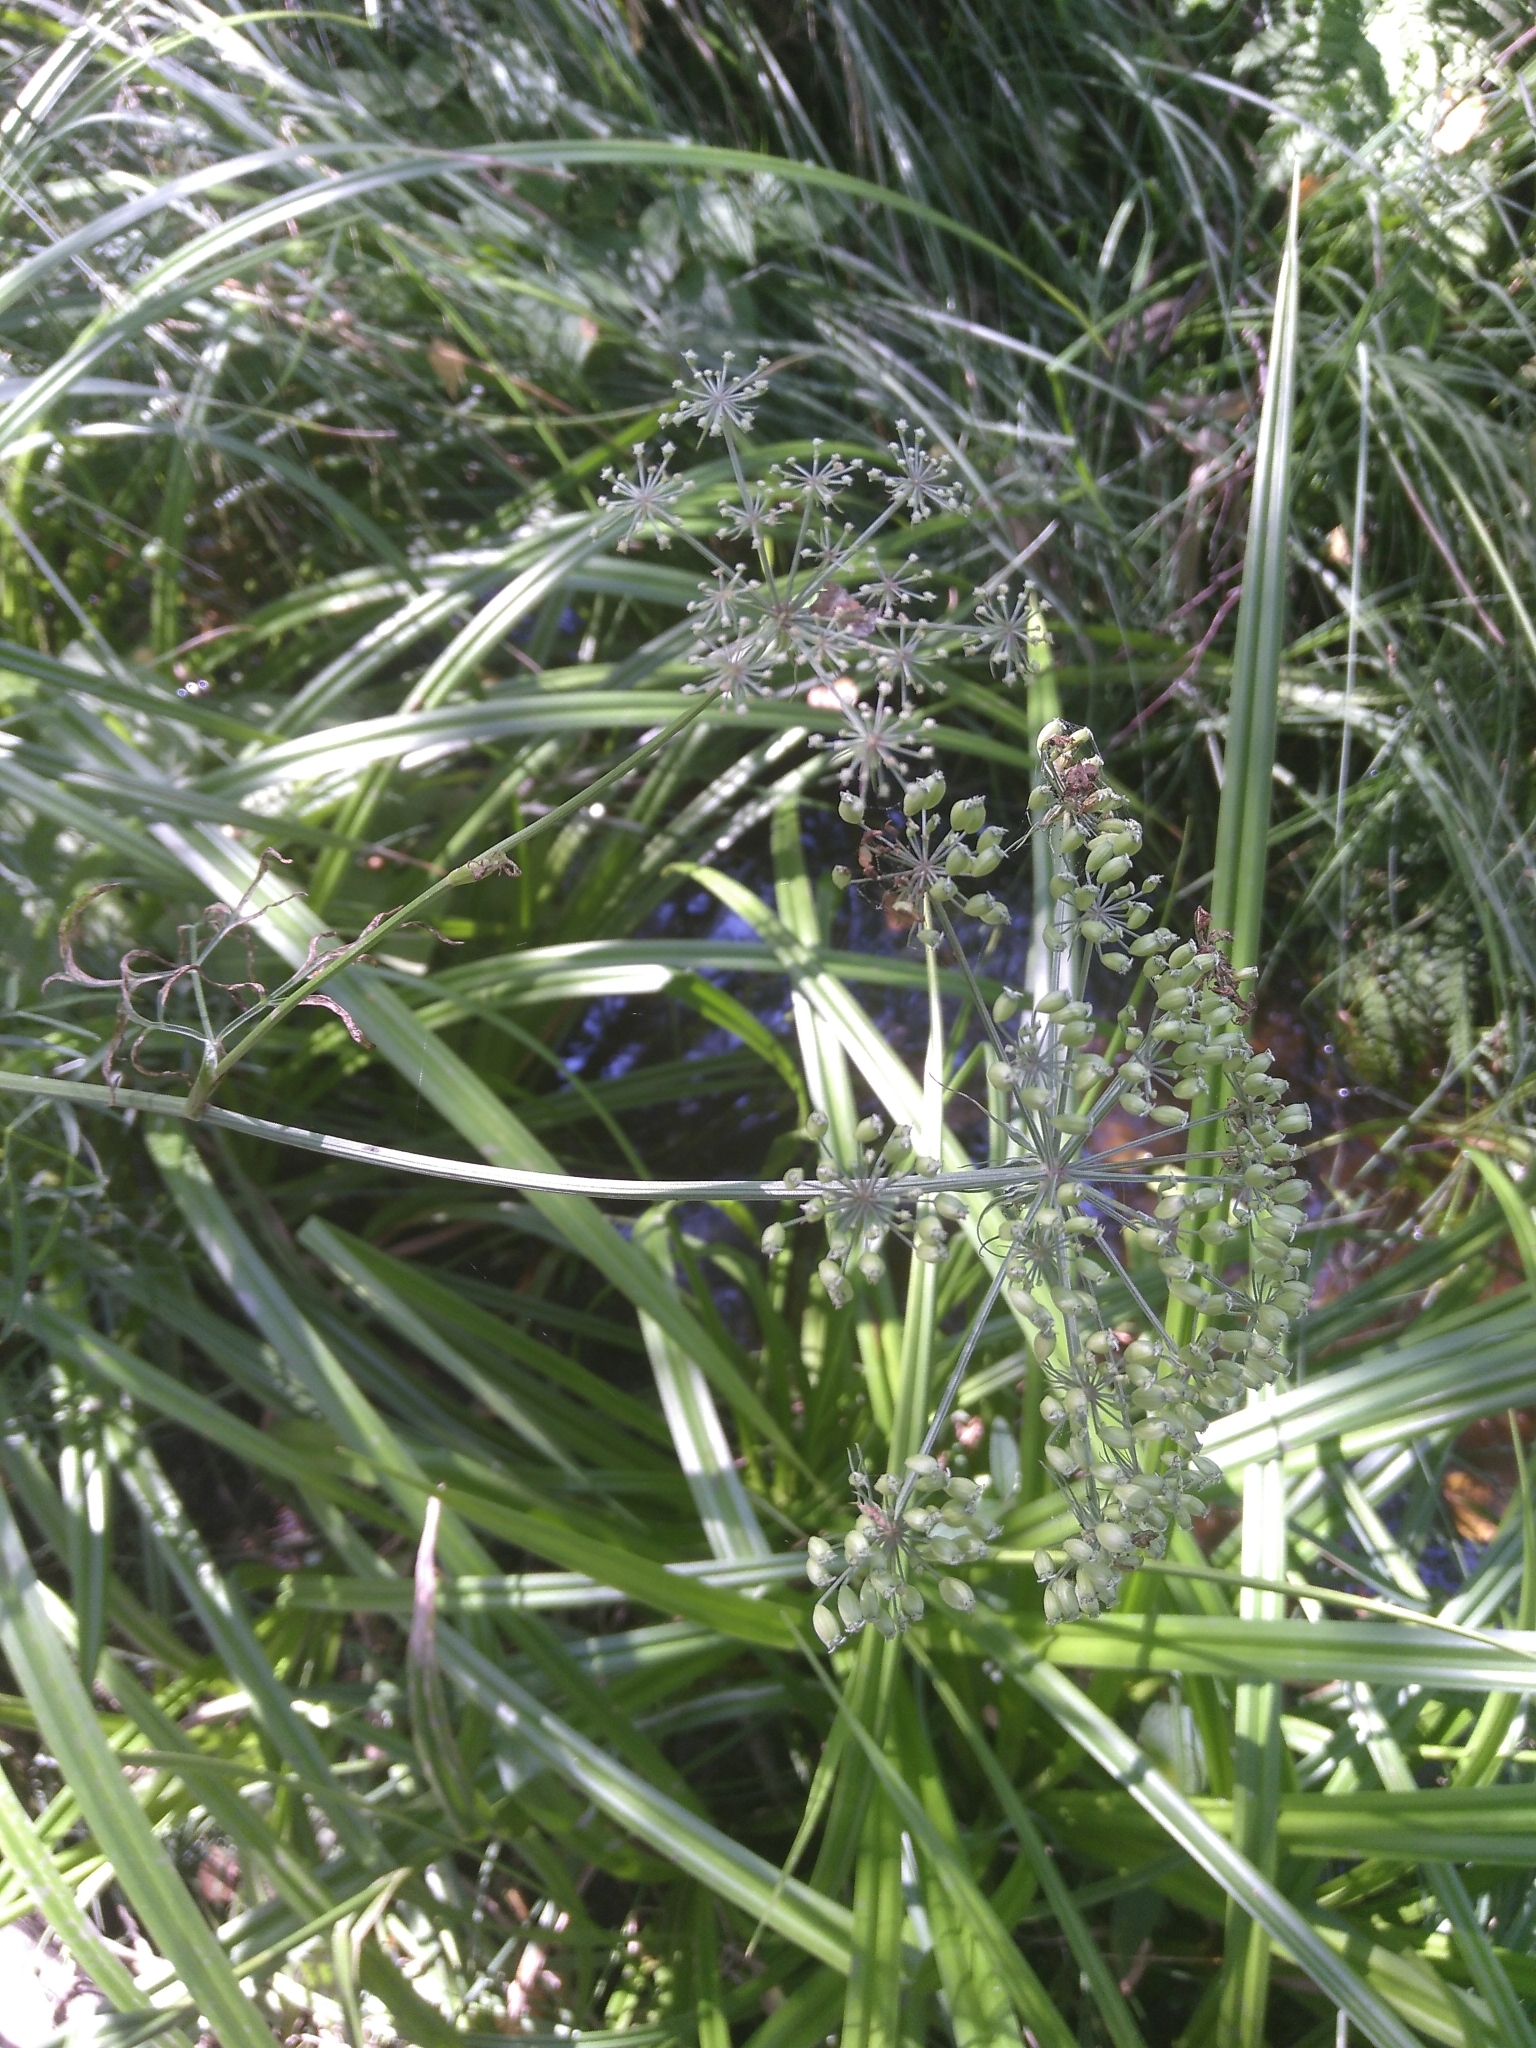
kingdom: Plantae
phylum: Tracheophyta
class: Magnoliopsida
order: Apiales
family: Apiaceae
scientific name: Apiaceae
